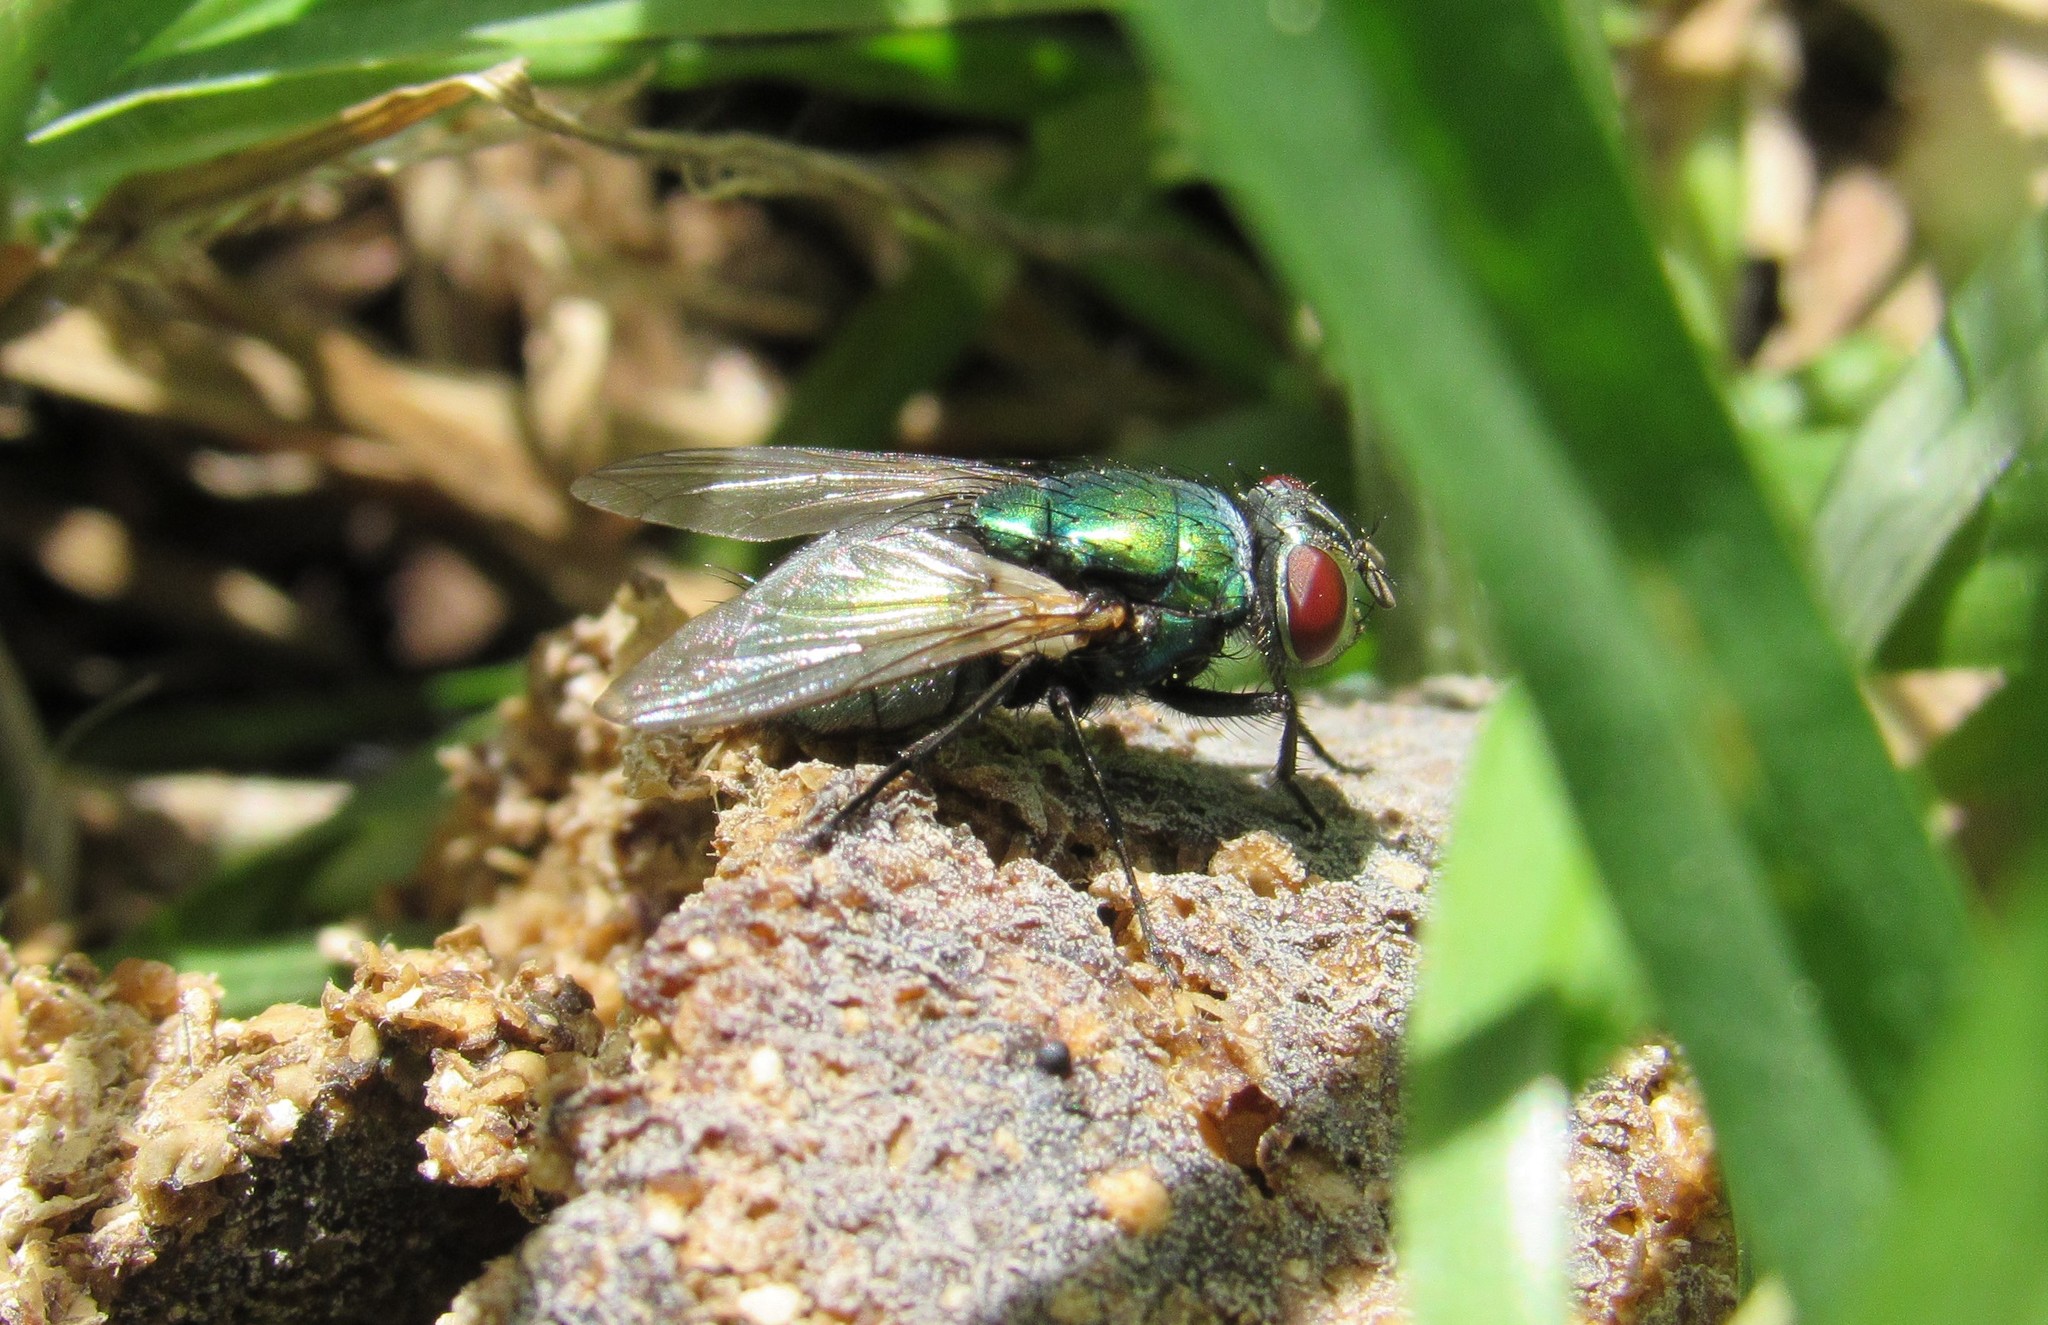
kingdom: Animalia
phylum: Arthropoda
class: Insecta
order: Diptera
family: Calliphoridae
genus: Lucilia
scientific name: Lucilia sericata
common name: Blow fly
